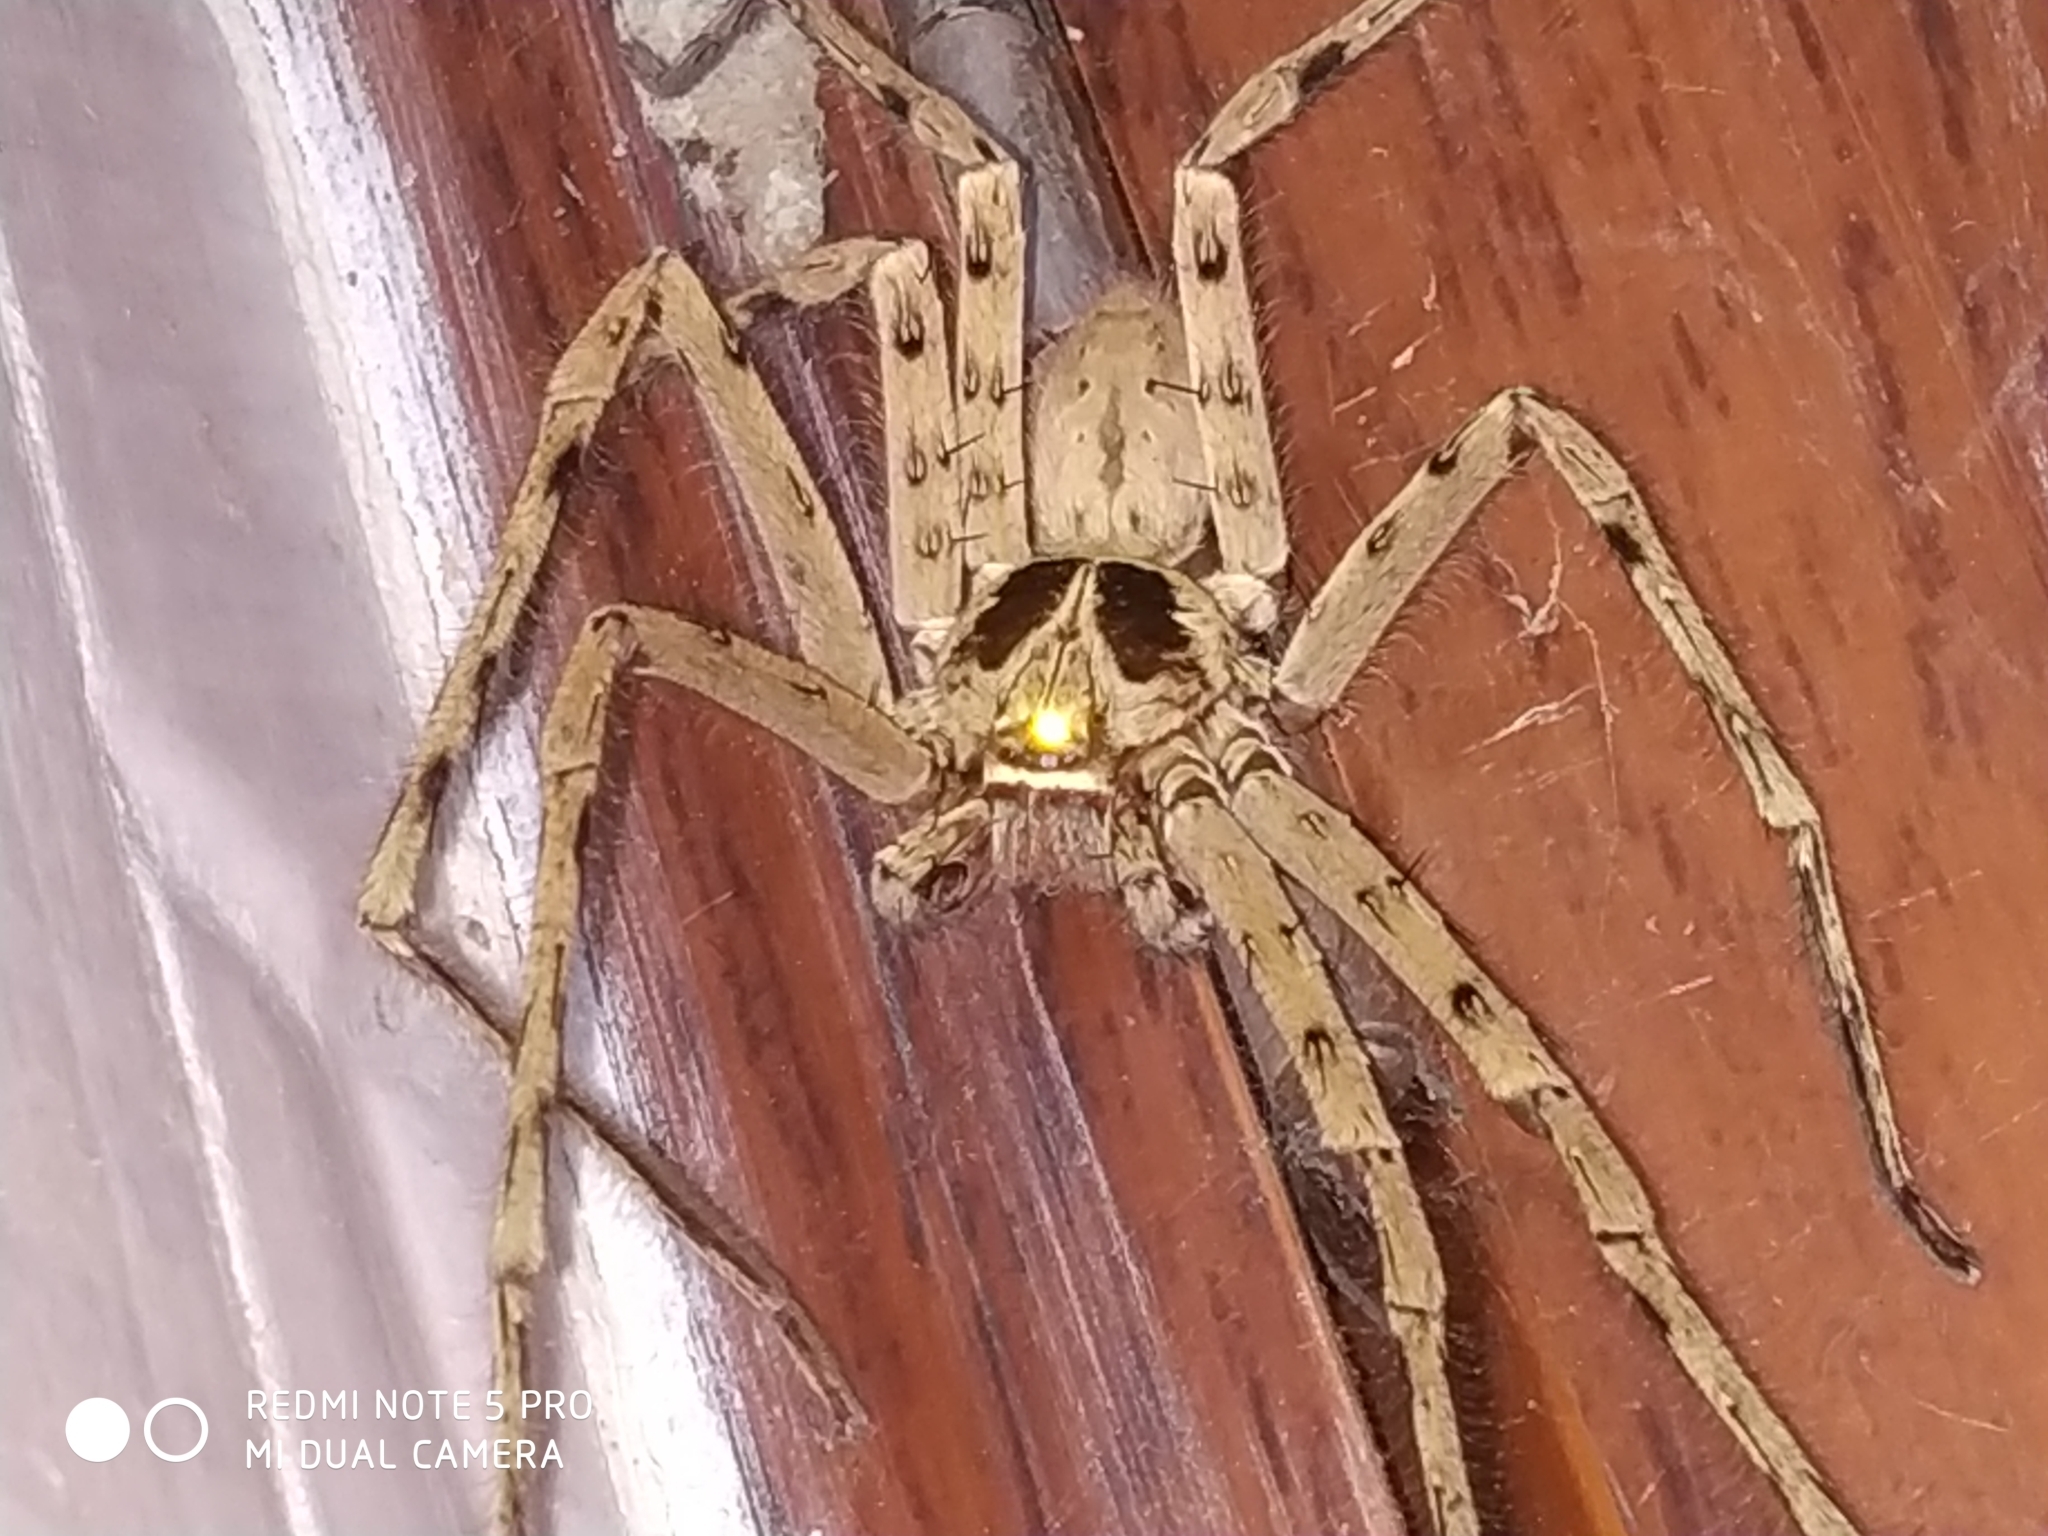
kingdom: Animalia
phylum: Arthropoda
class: Arachnida
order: Araneae
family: Sparassidae
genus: Heteropoda
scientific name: Heteropoda venatoria
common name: Huntsman spider
